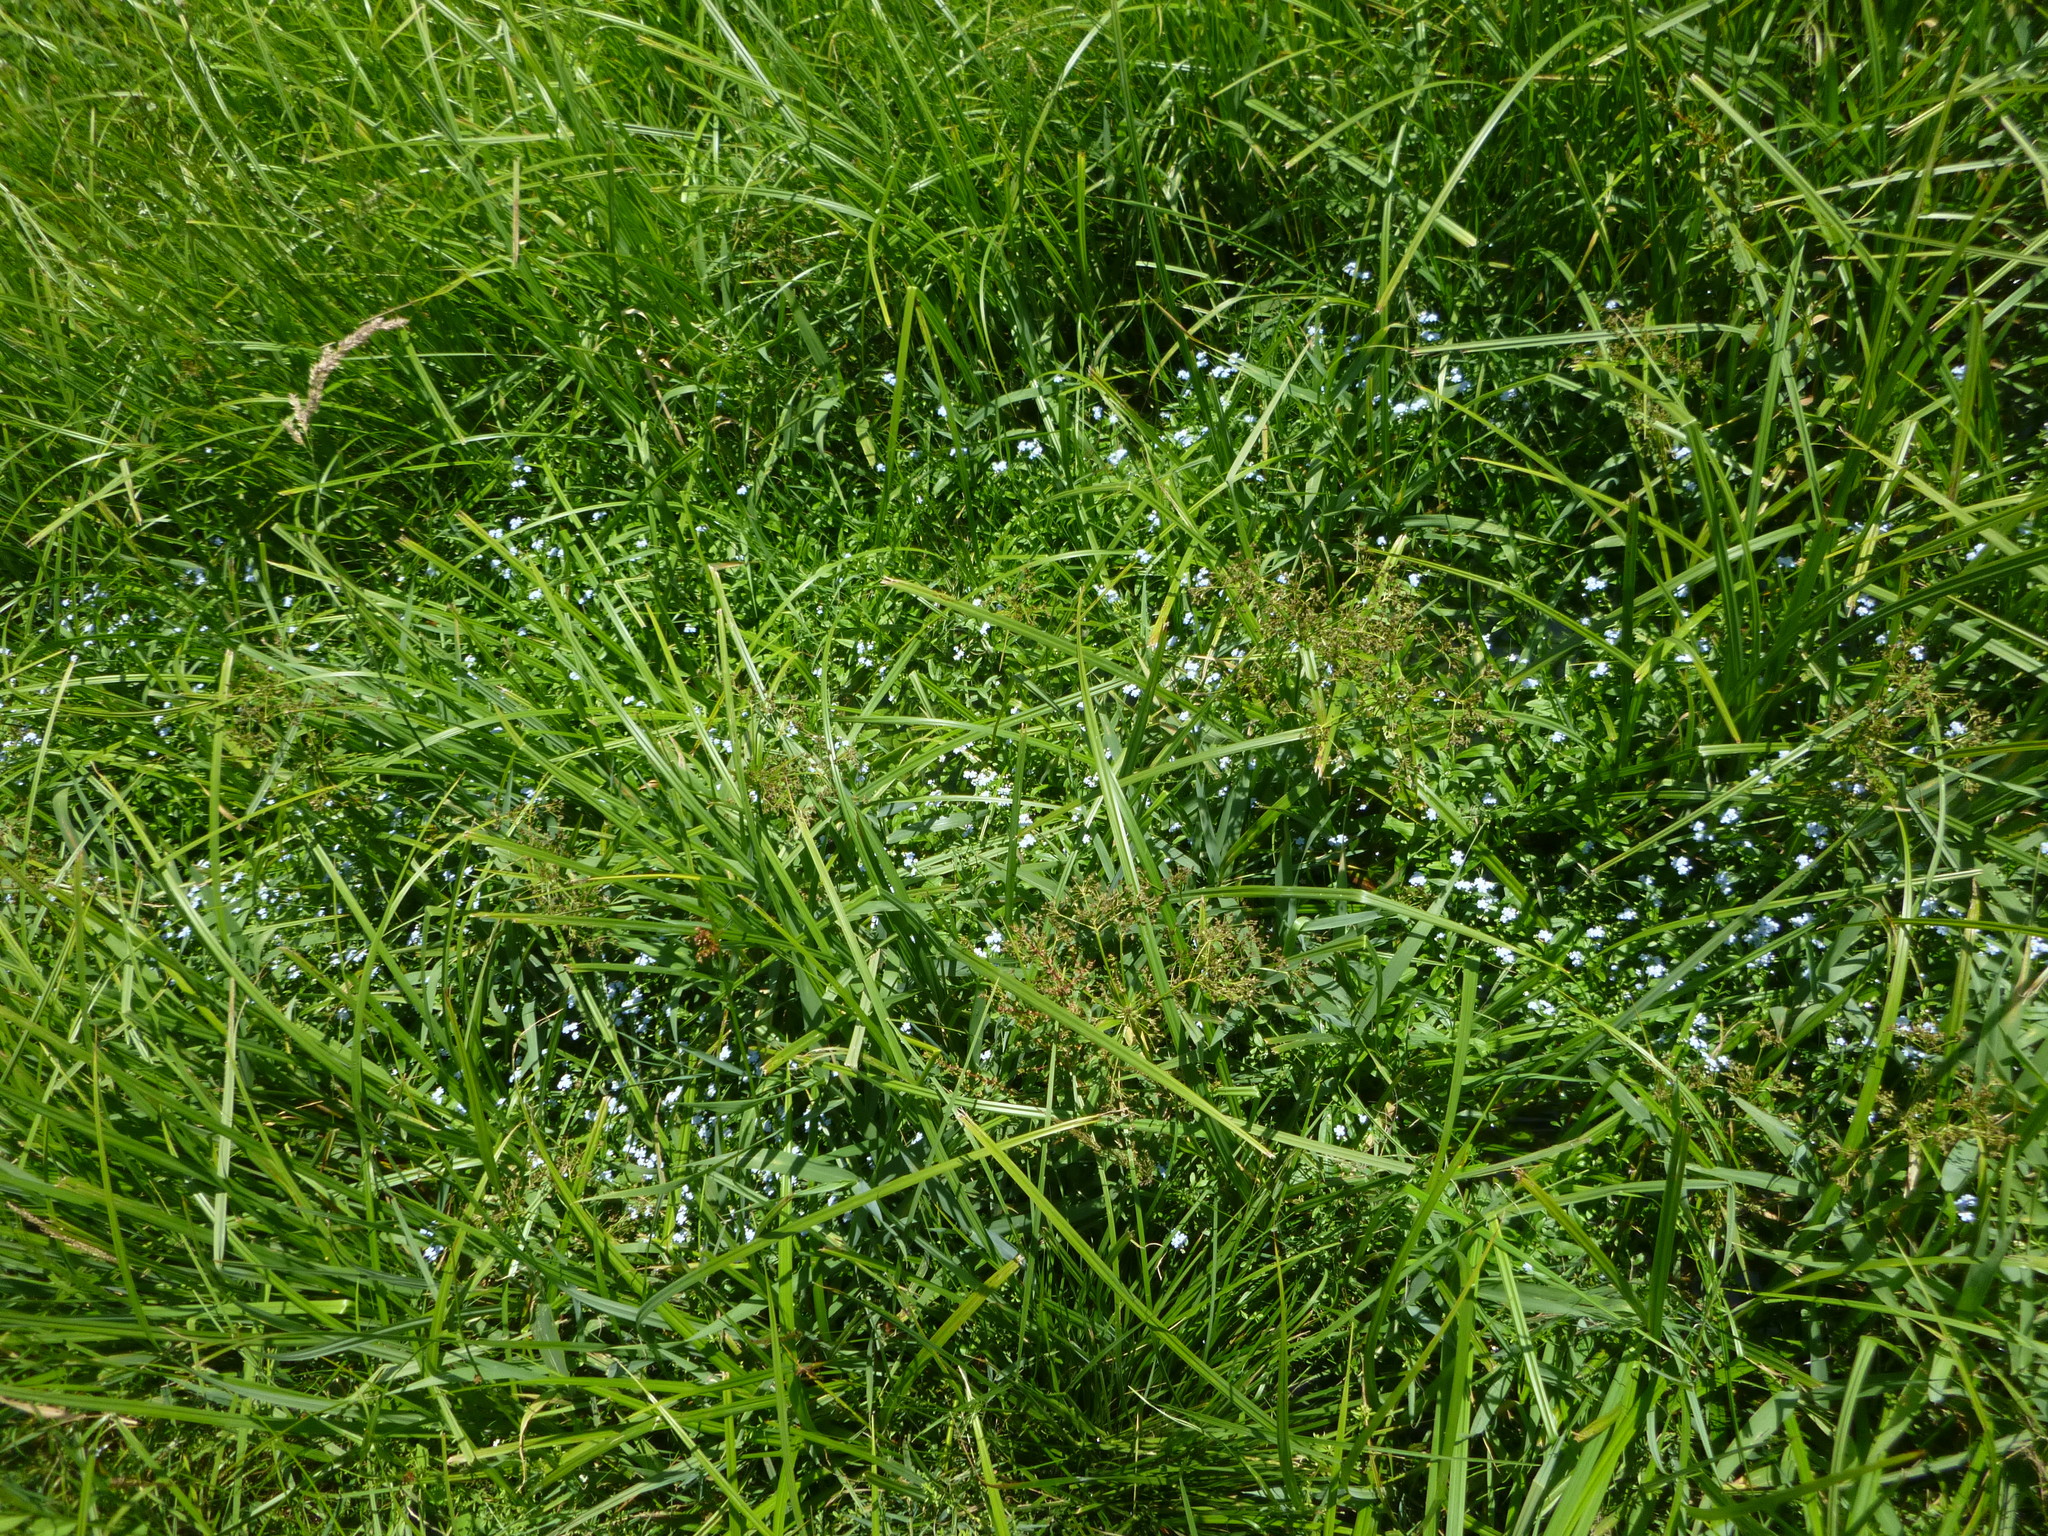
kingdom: Plantae
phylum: Tracheophyta
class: Magnoliopsida
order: Boraginales
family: Boraginaceae
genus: Myosotis
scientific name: Myosotis scorpioides
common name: Water forget-me-not
